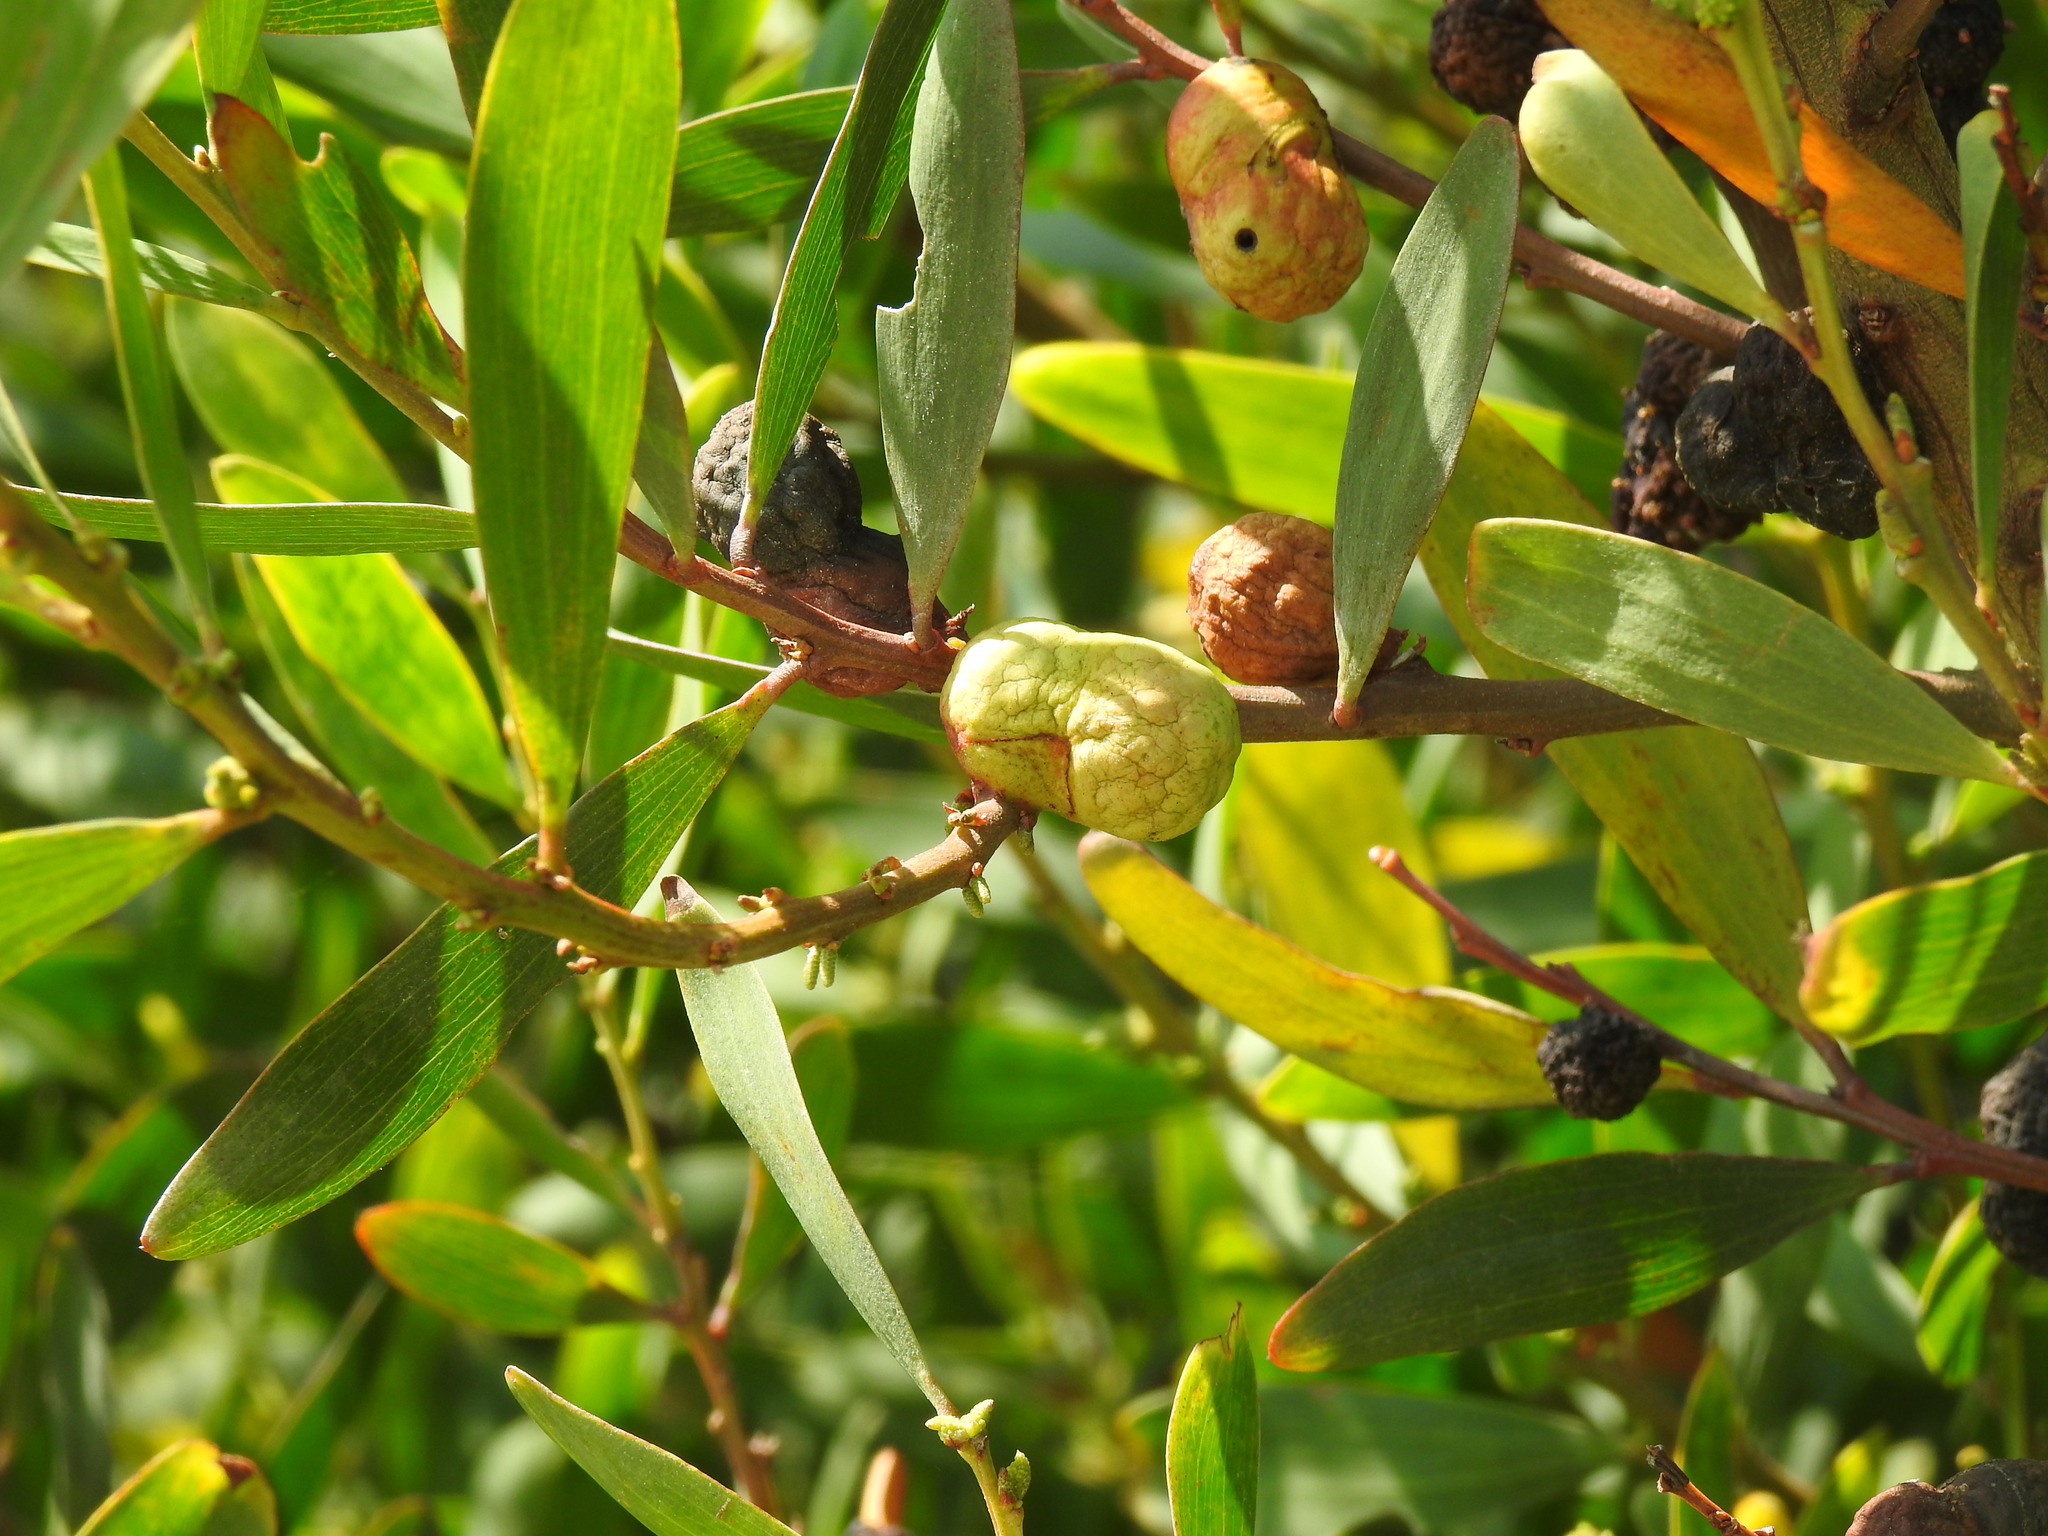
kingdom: Animalia
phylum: Arthropoda
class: Insecta
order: Hymenoptera
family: Pteromalidae
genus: Trichilogaster
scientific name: Trichilogaster acaciaelongifoliae
